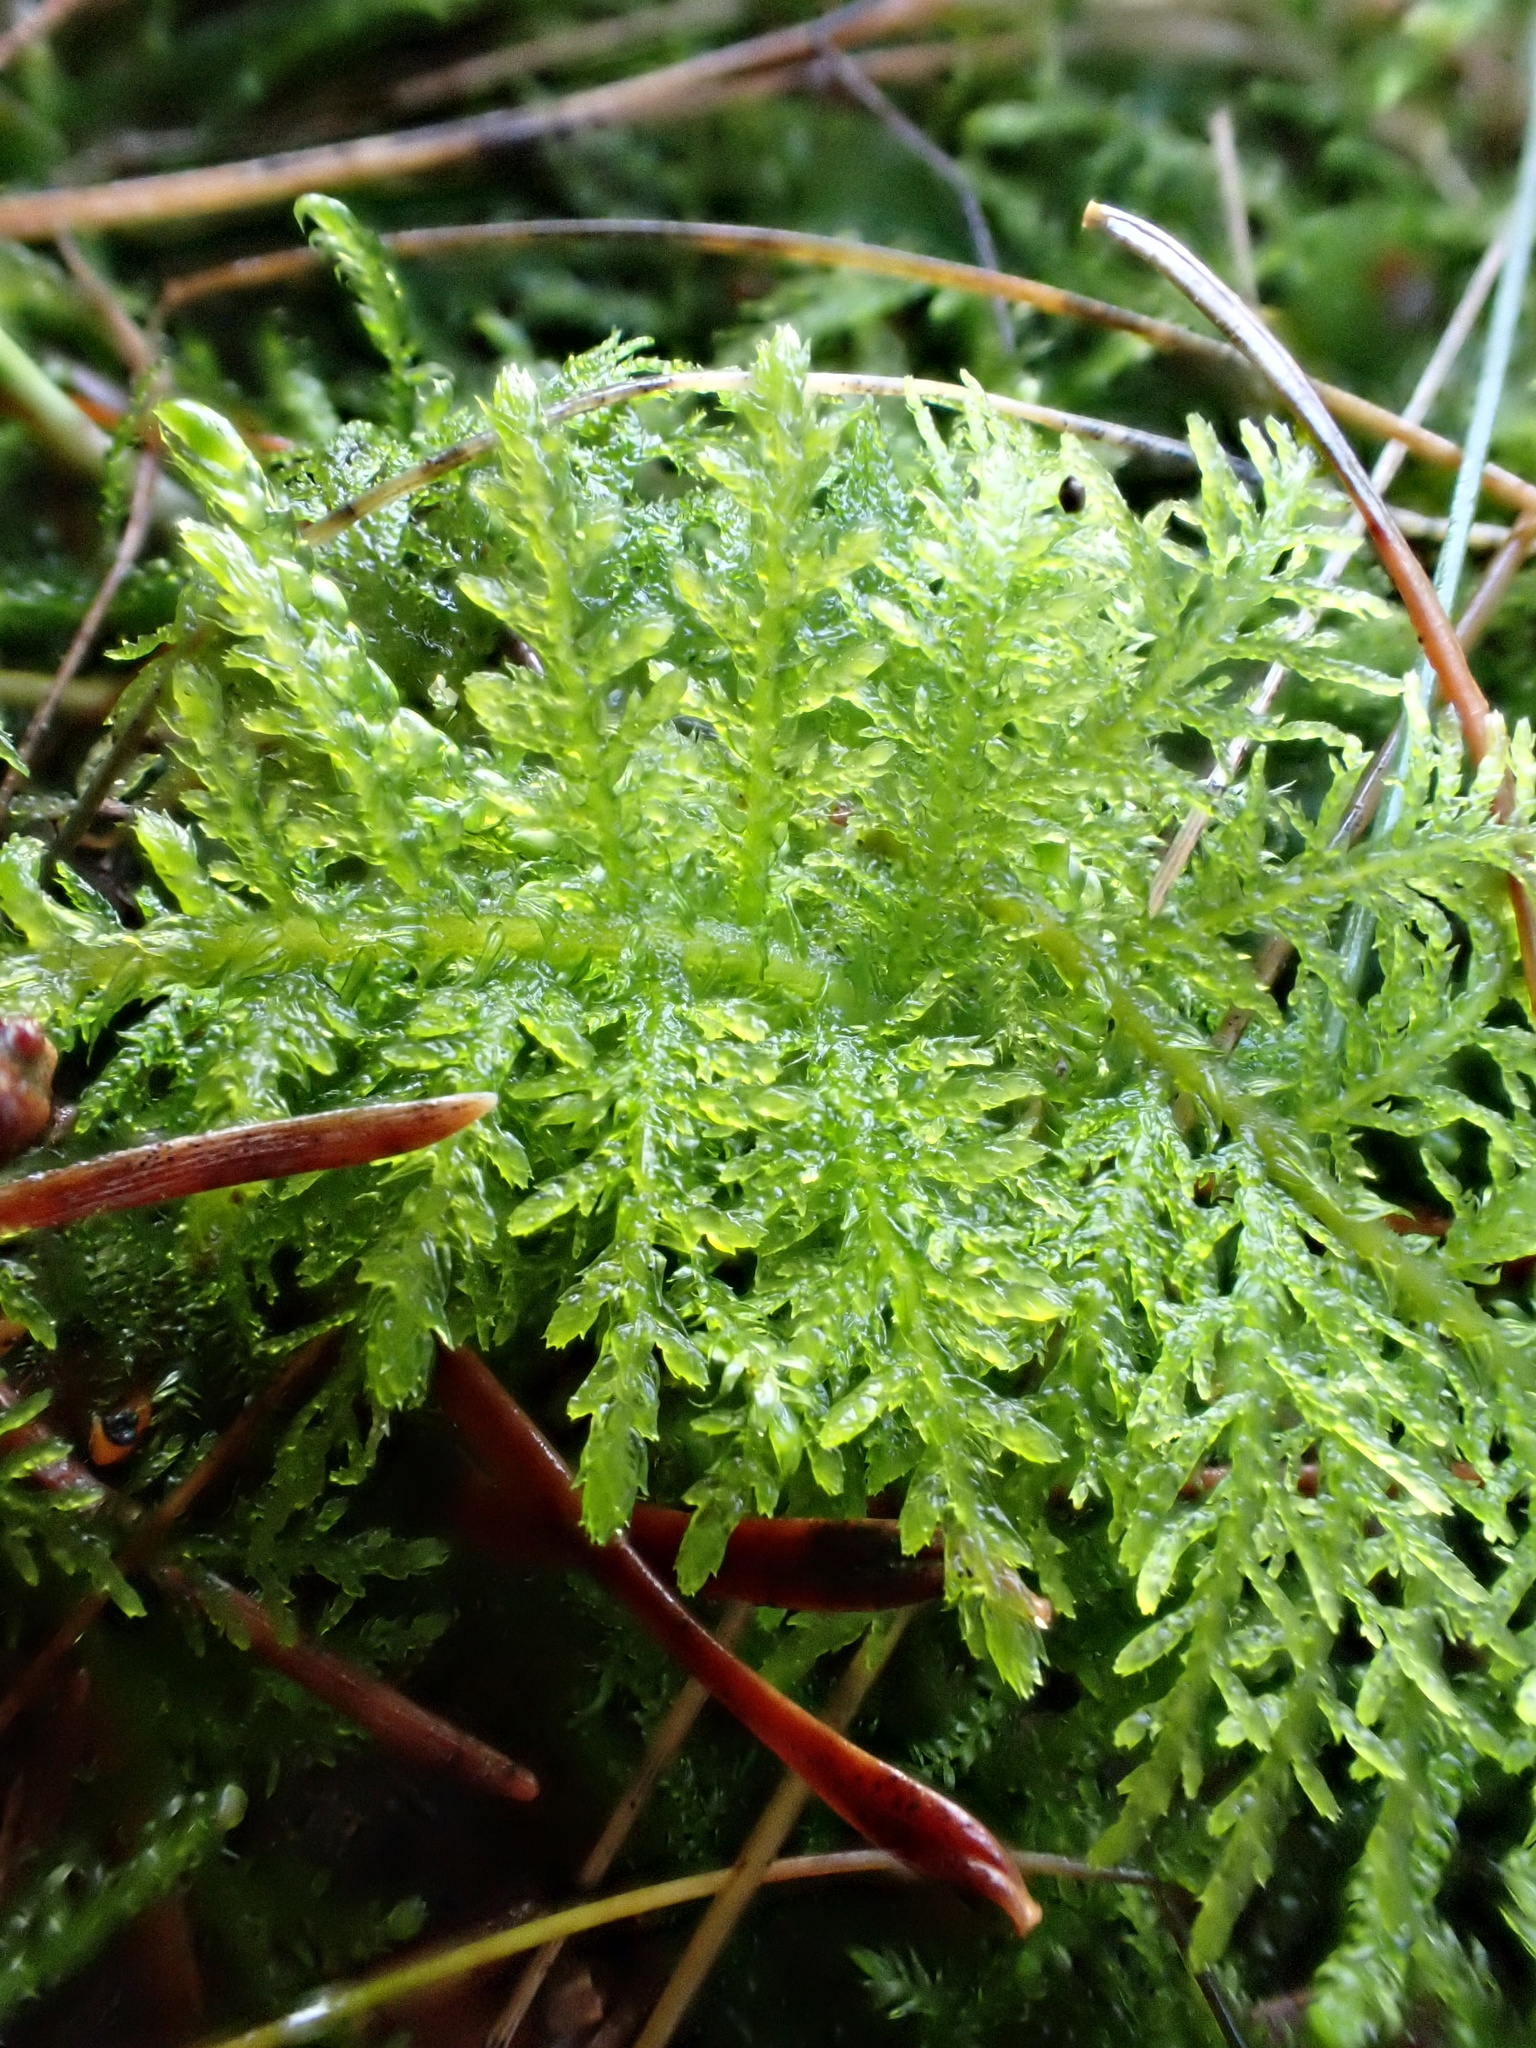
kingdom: Plantae
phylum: Bryophyta
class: Bryopsida
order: Hypnales
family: Thuidiaceae
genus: Thuidium
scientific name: Thuidium tamariscinum
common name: Common tamarisk-moss
